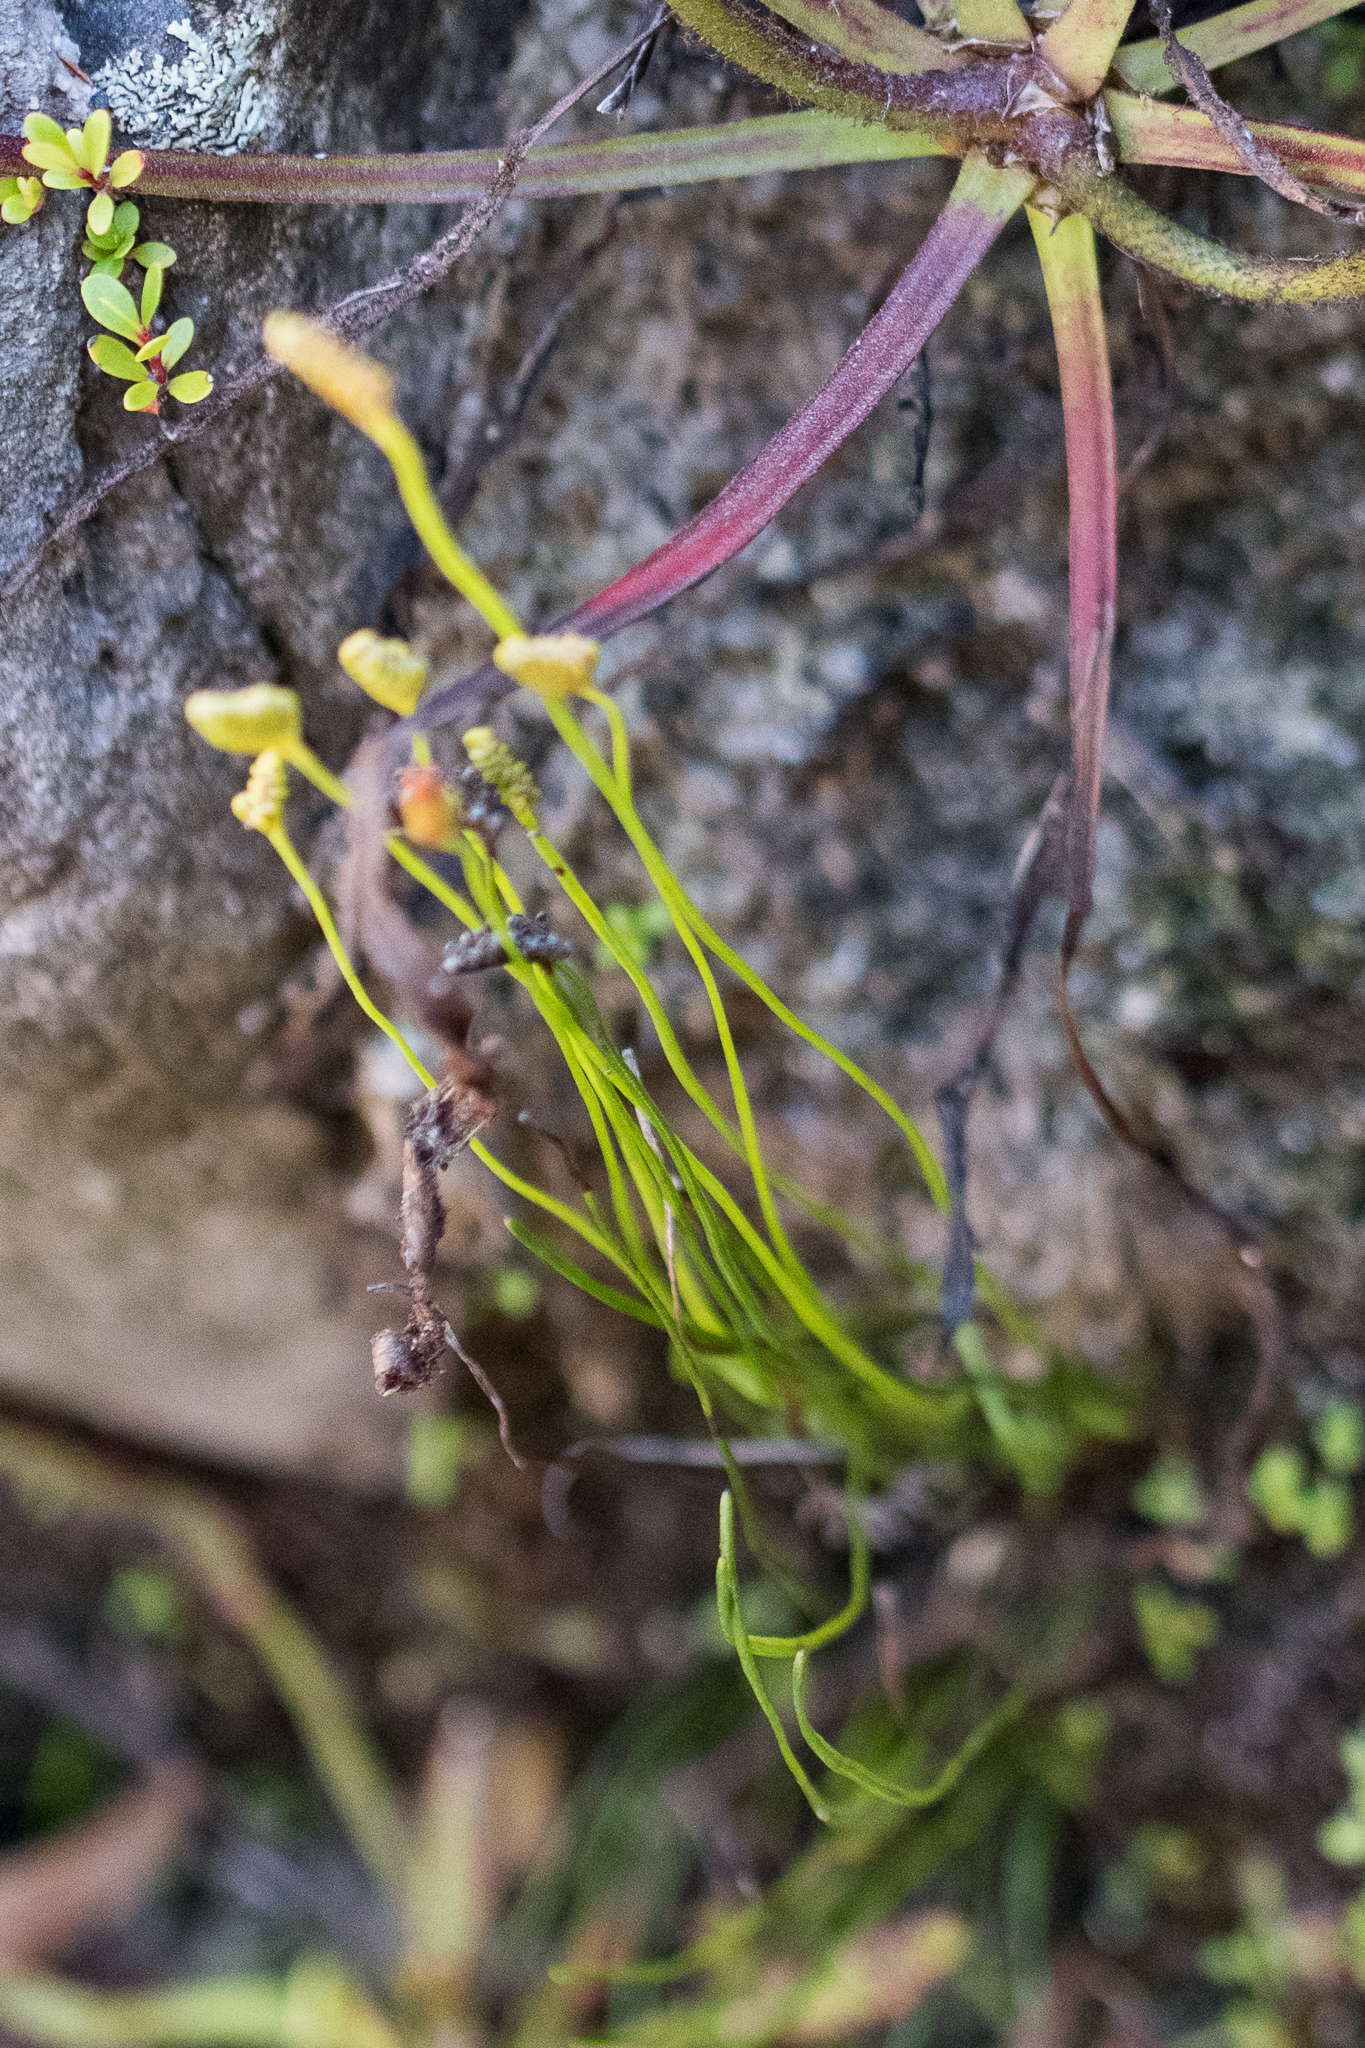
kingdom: Plantae
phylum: Tracheophyta
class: Polypodiopsida
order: Schizaeales
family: Schizaeaceae
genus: Microschizaea
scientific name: Microschizaea tenella
